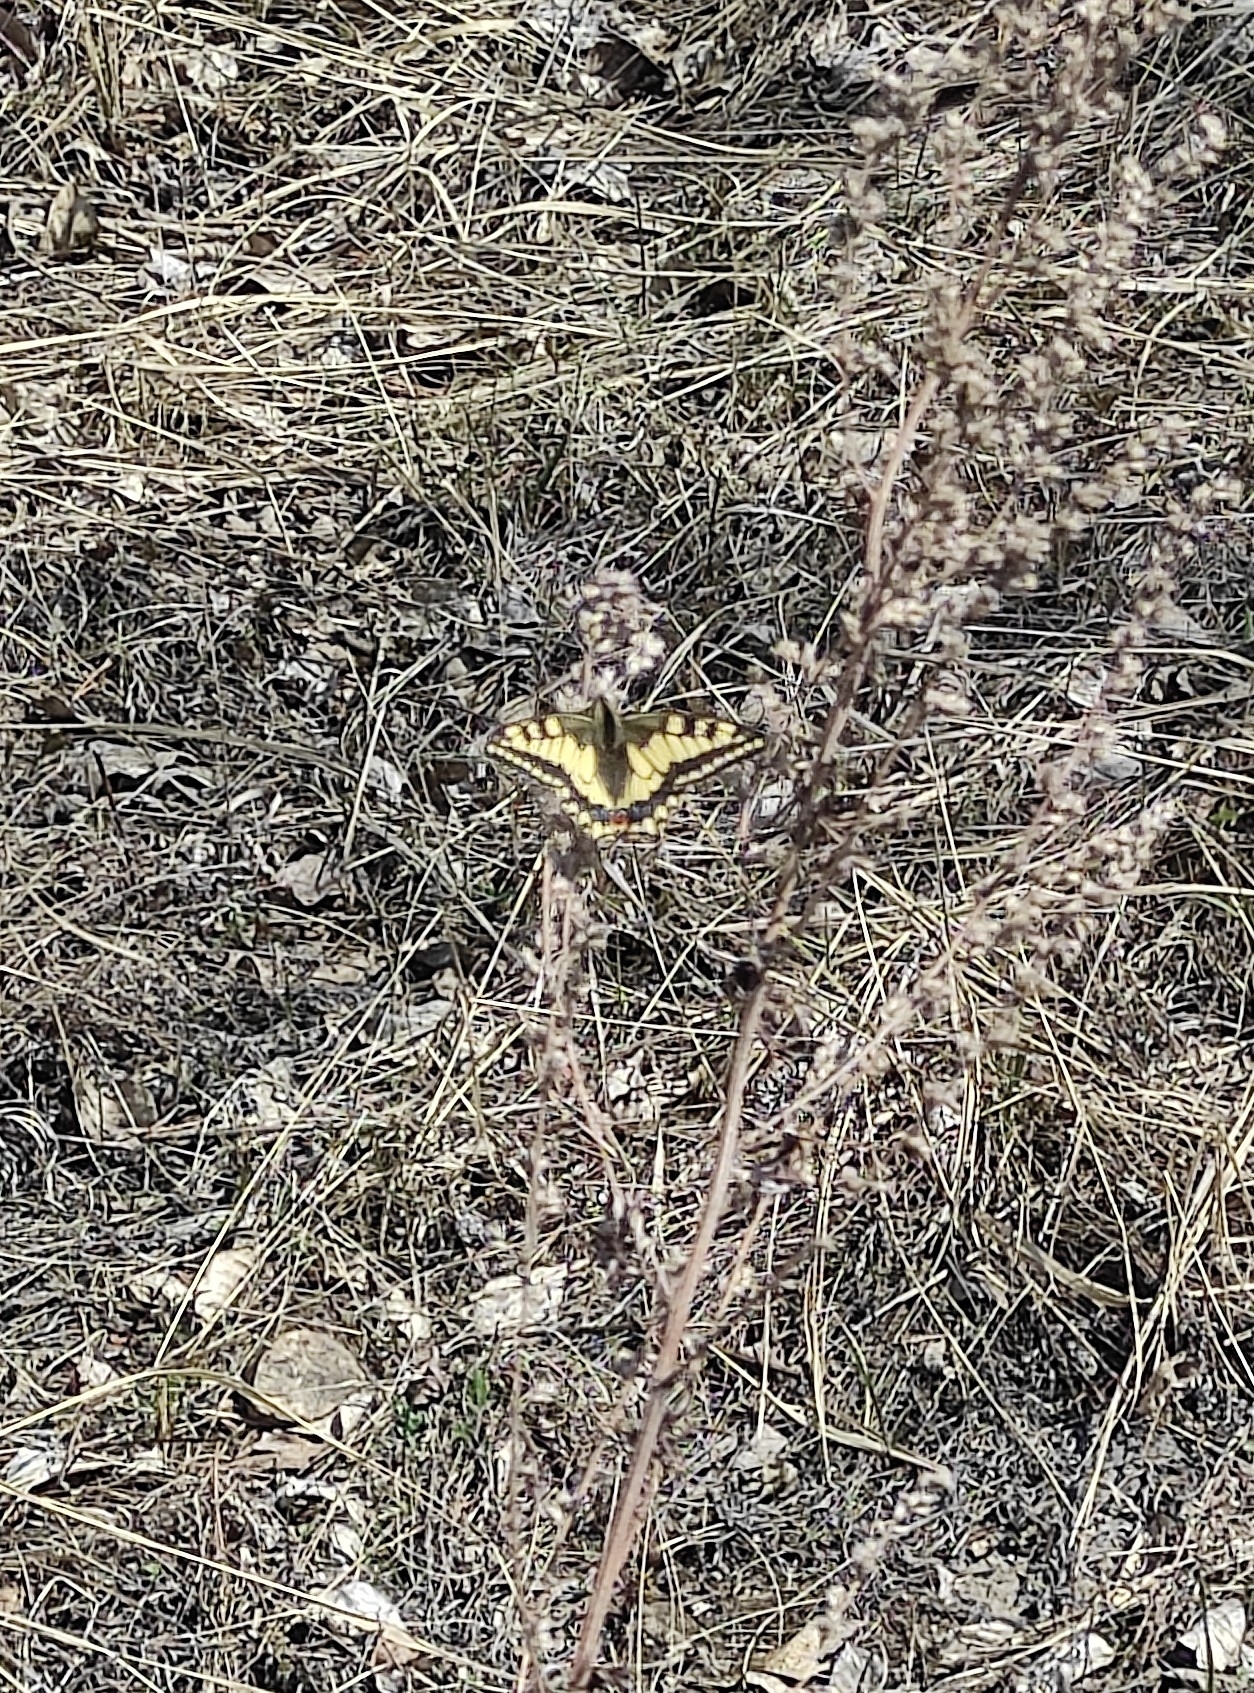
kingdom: Animalia
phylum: Arthropoda
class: Insecta
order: Lepidoptera
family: Papilionidae
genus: Papilio
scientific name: Papilio machaon
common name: Swallowtail
